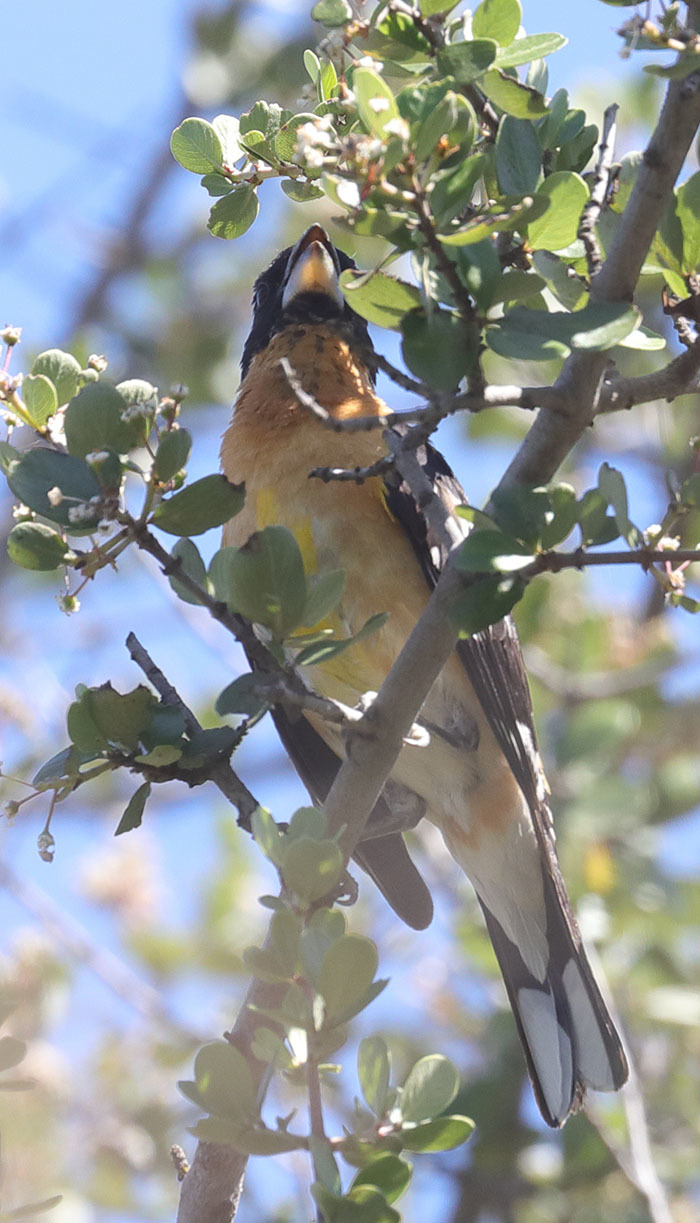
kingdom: Animalia
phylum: Chordata
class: Aves
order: Passeriformes
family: Cardinalidae
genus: Pheucticus
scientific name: Pheucticus melanocephalus
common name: Black-headed grosbeak
